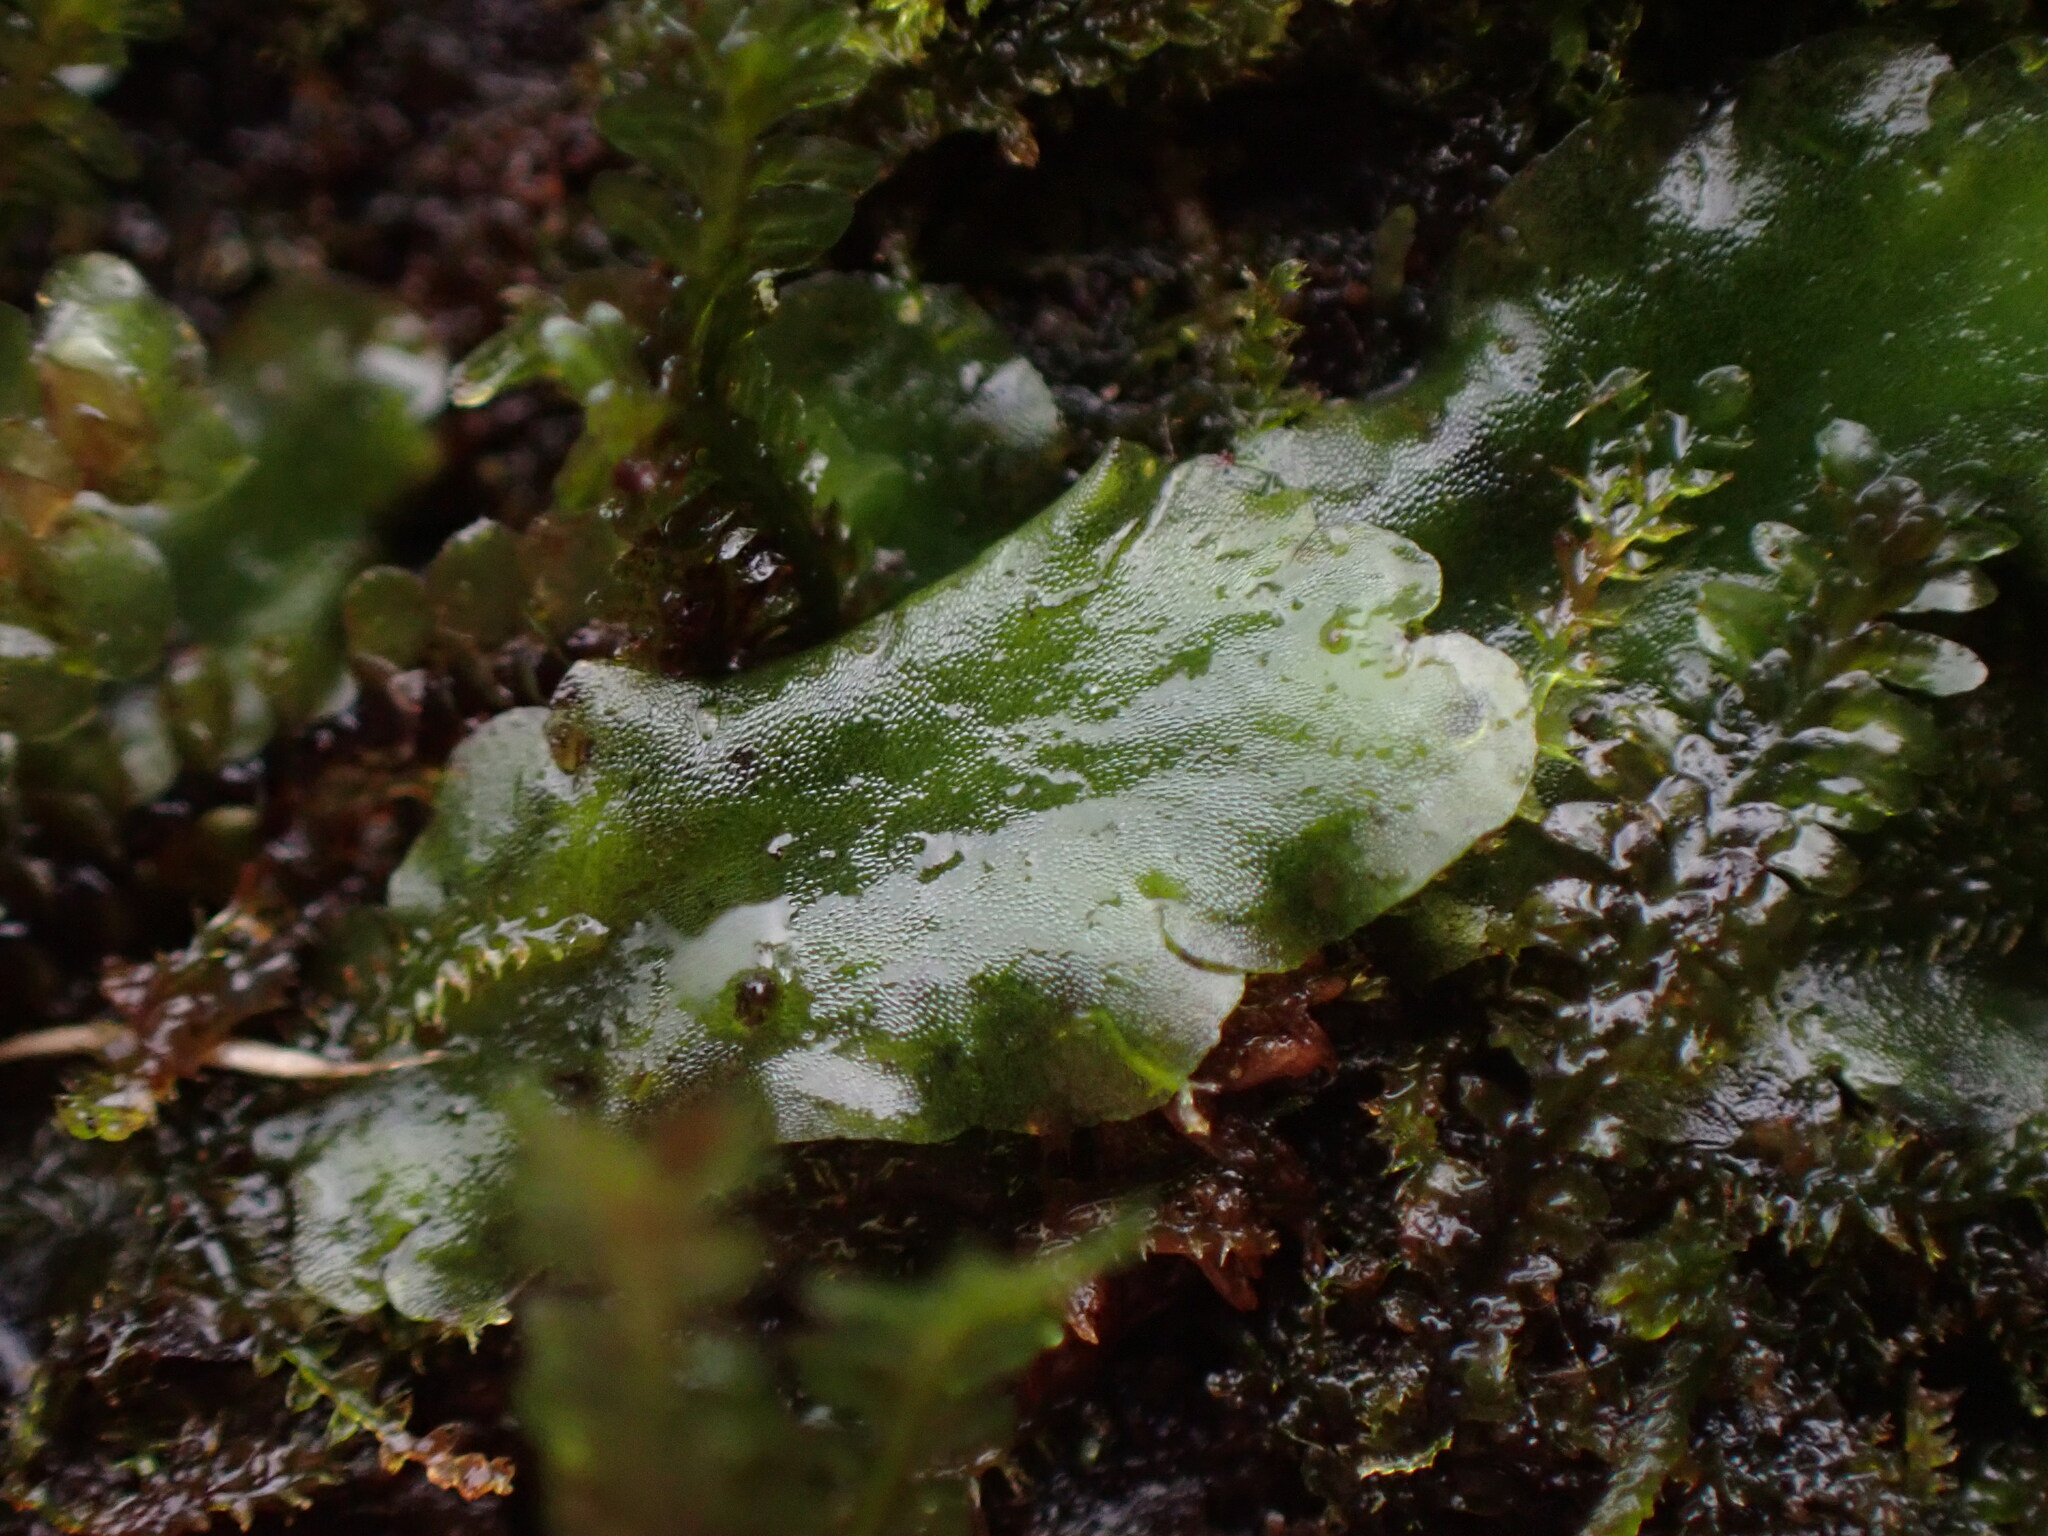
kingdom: Plantae
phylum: Marchantiophyta
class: Jungermanniopsida
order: Pelliales
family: Pelliaceae
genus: Pellia
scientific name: Pellia neesiana
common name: Nees  pellia
